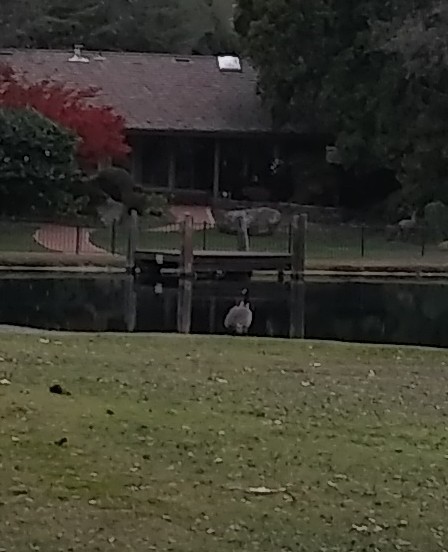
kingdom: Animalia
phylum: Chordata
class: Aves
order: Anseriformes
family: Anatidae
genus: Branta
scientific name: Branta canadensis
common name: Canada goose
